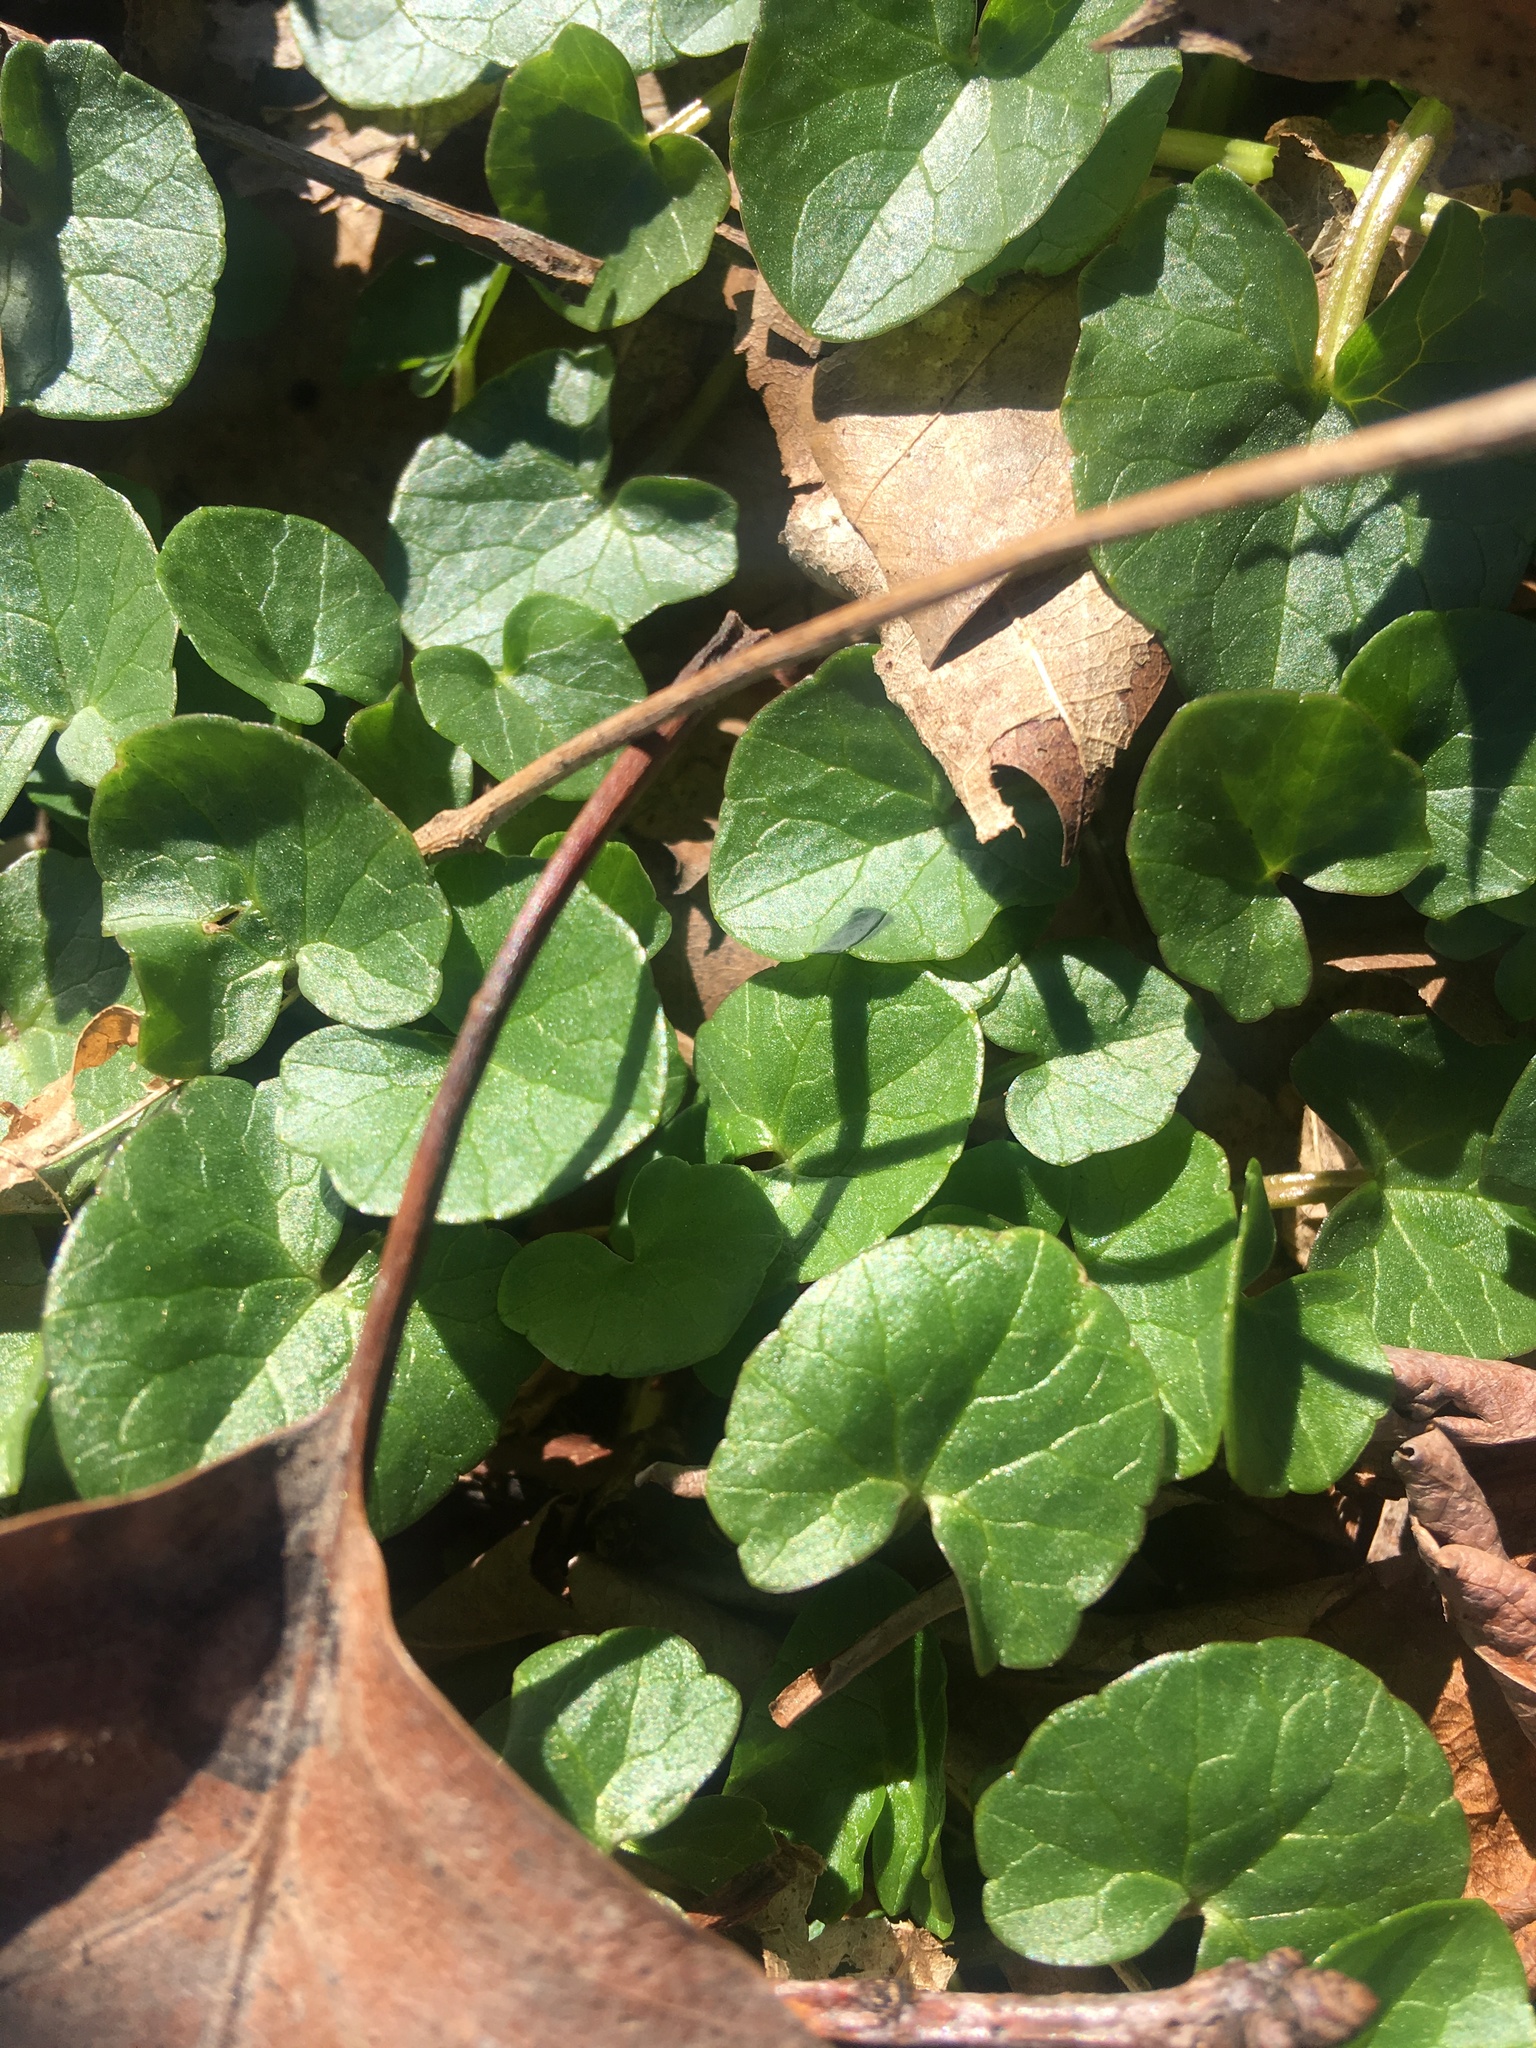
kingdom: Plantae
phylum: Tracheophyta
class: Magnoliopsida
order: Ranunculales
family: Ranunculaceae
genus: Ficaria
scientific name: Ficaria verna
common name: Lesser celandine
